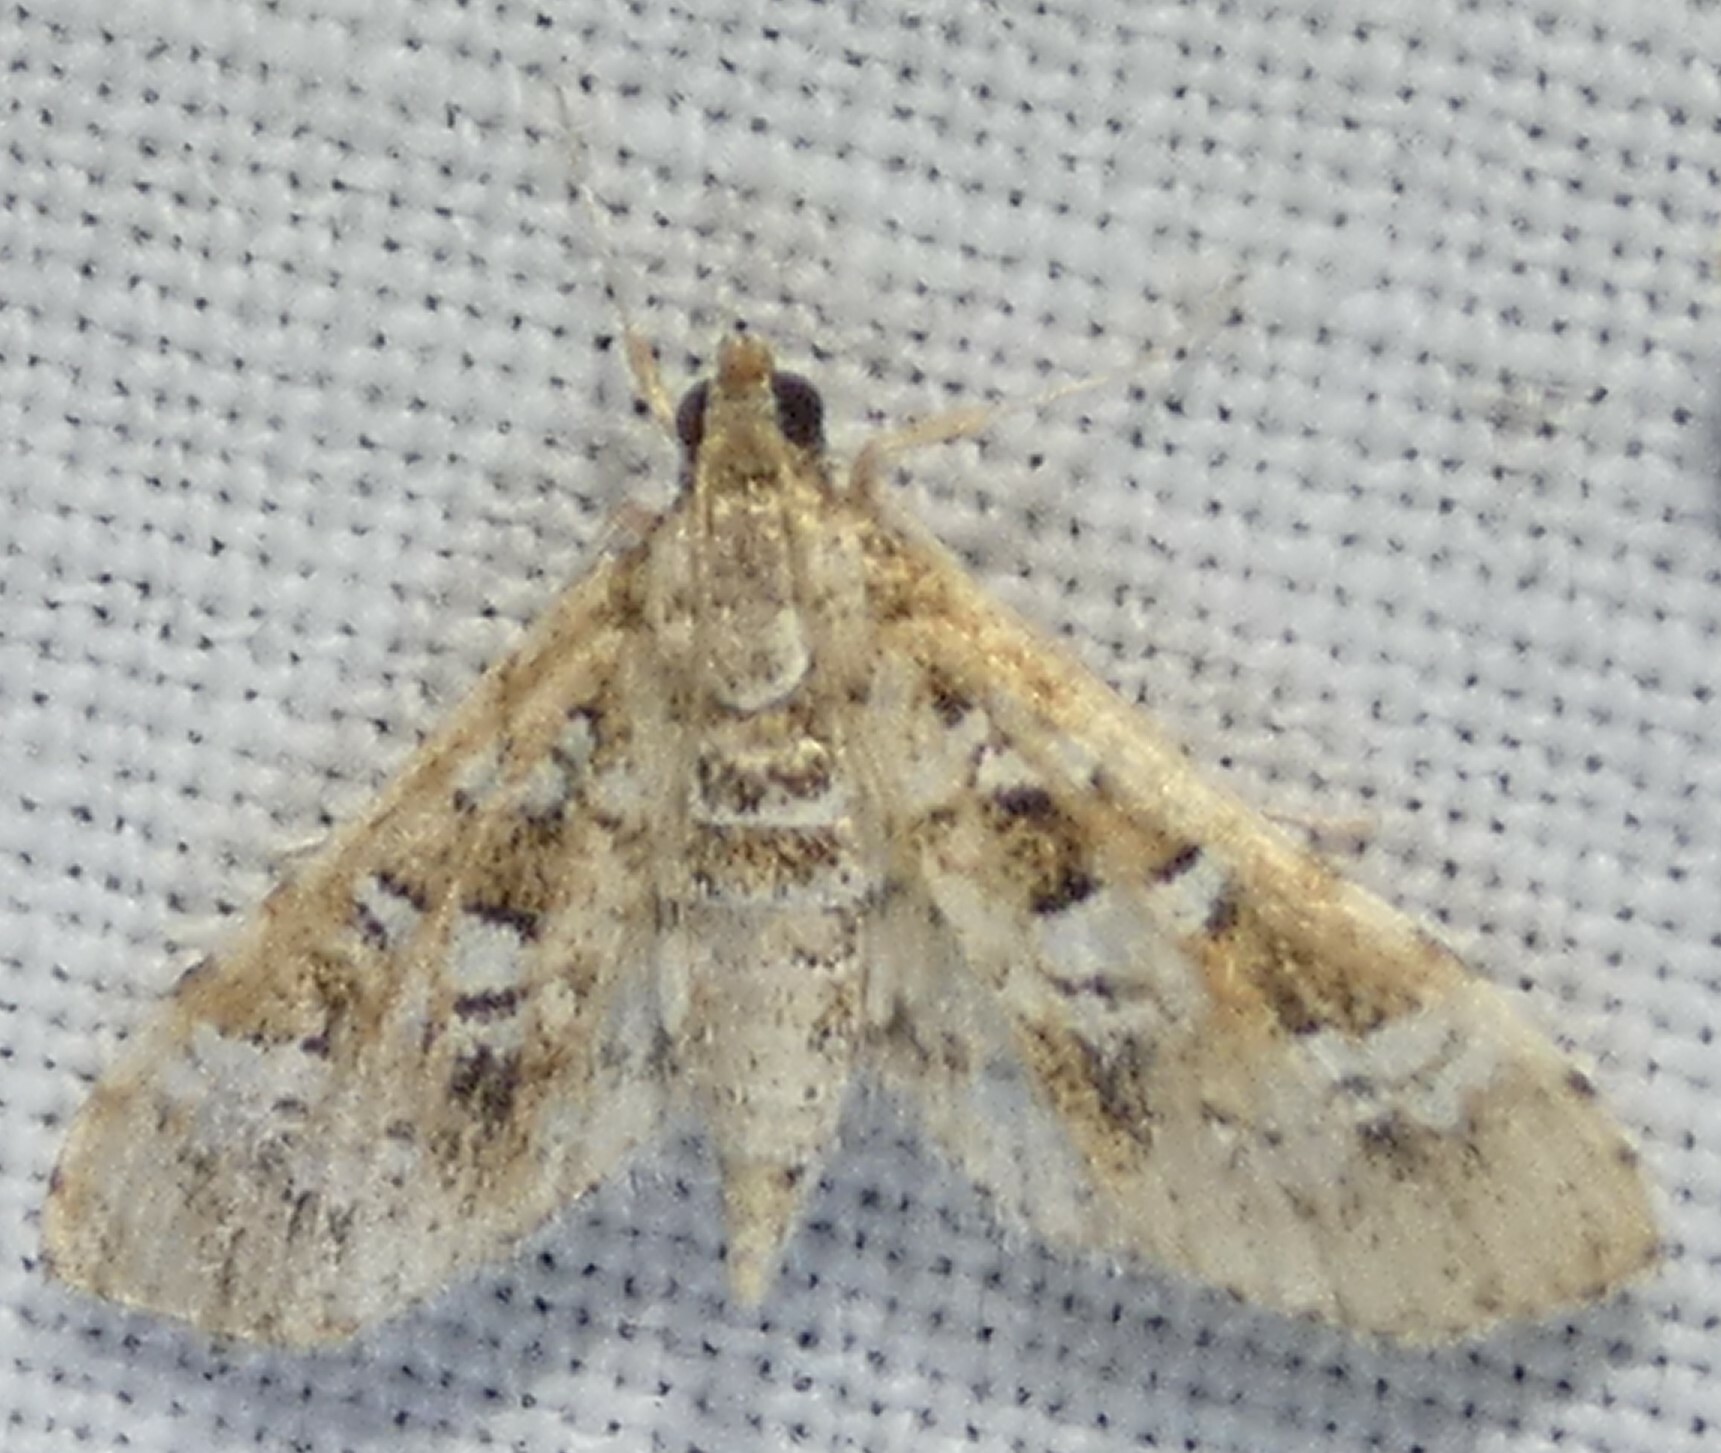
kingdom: Animalia
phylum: Arthropoda
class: Insecta
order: Lepidoptera
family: Crambidae
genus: Samea
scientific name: Samea multiplicalis
